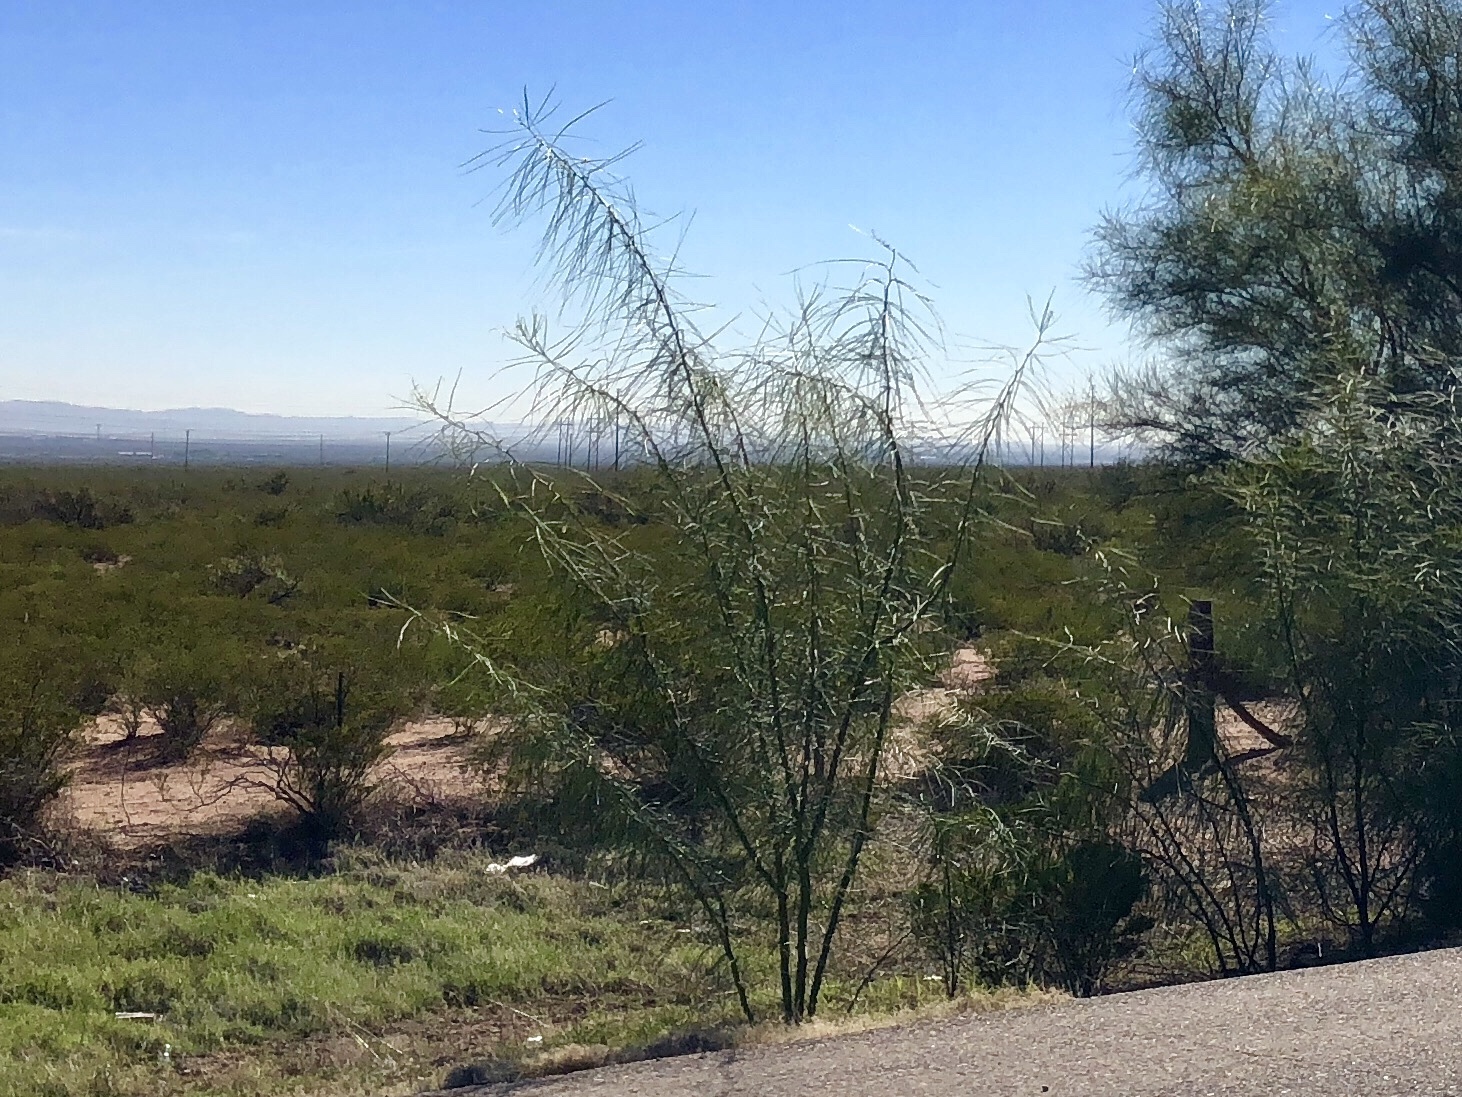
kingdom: Plantae
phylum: Tracheophyta
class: Magnoliopsida
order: Fabales
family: Fabaceae
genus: Parkinsonia
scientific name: Parkinsonia aculeata
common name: Jerusalem thorn
